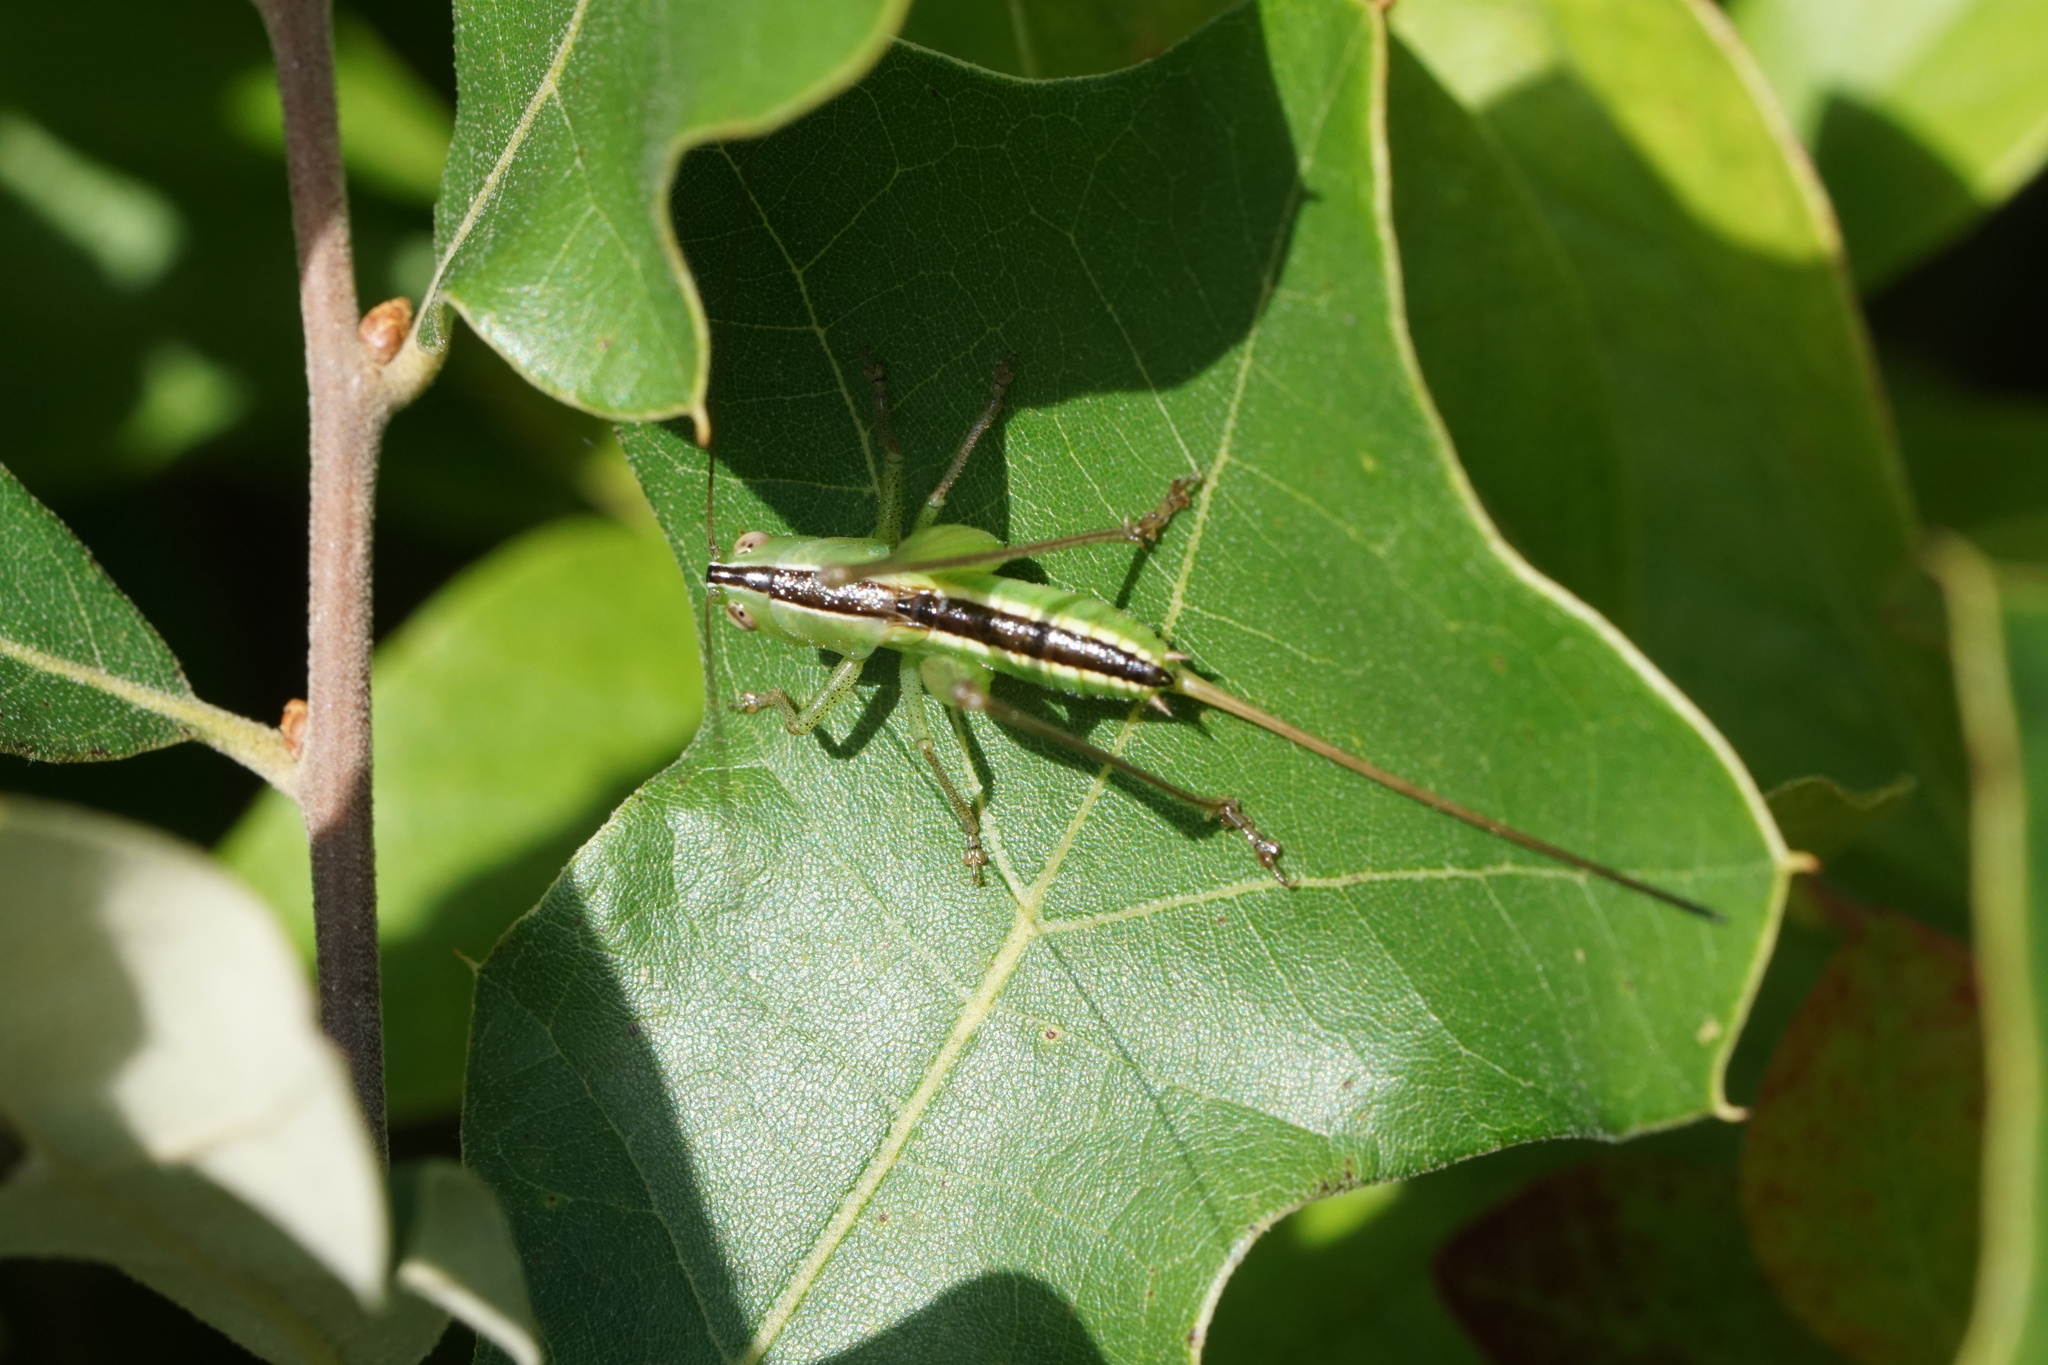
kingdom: Animalia
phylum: Arthropoda
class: Insecta
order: Orthoptera
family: Tettigoniidae
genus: Conocephalus
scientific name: Conocephalus strictus
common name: Straight-lanced katydid
